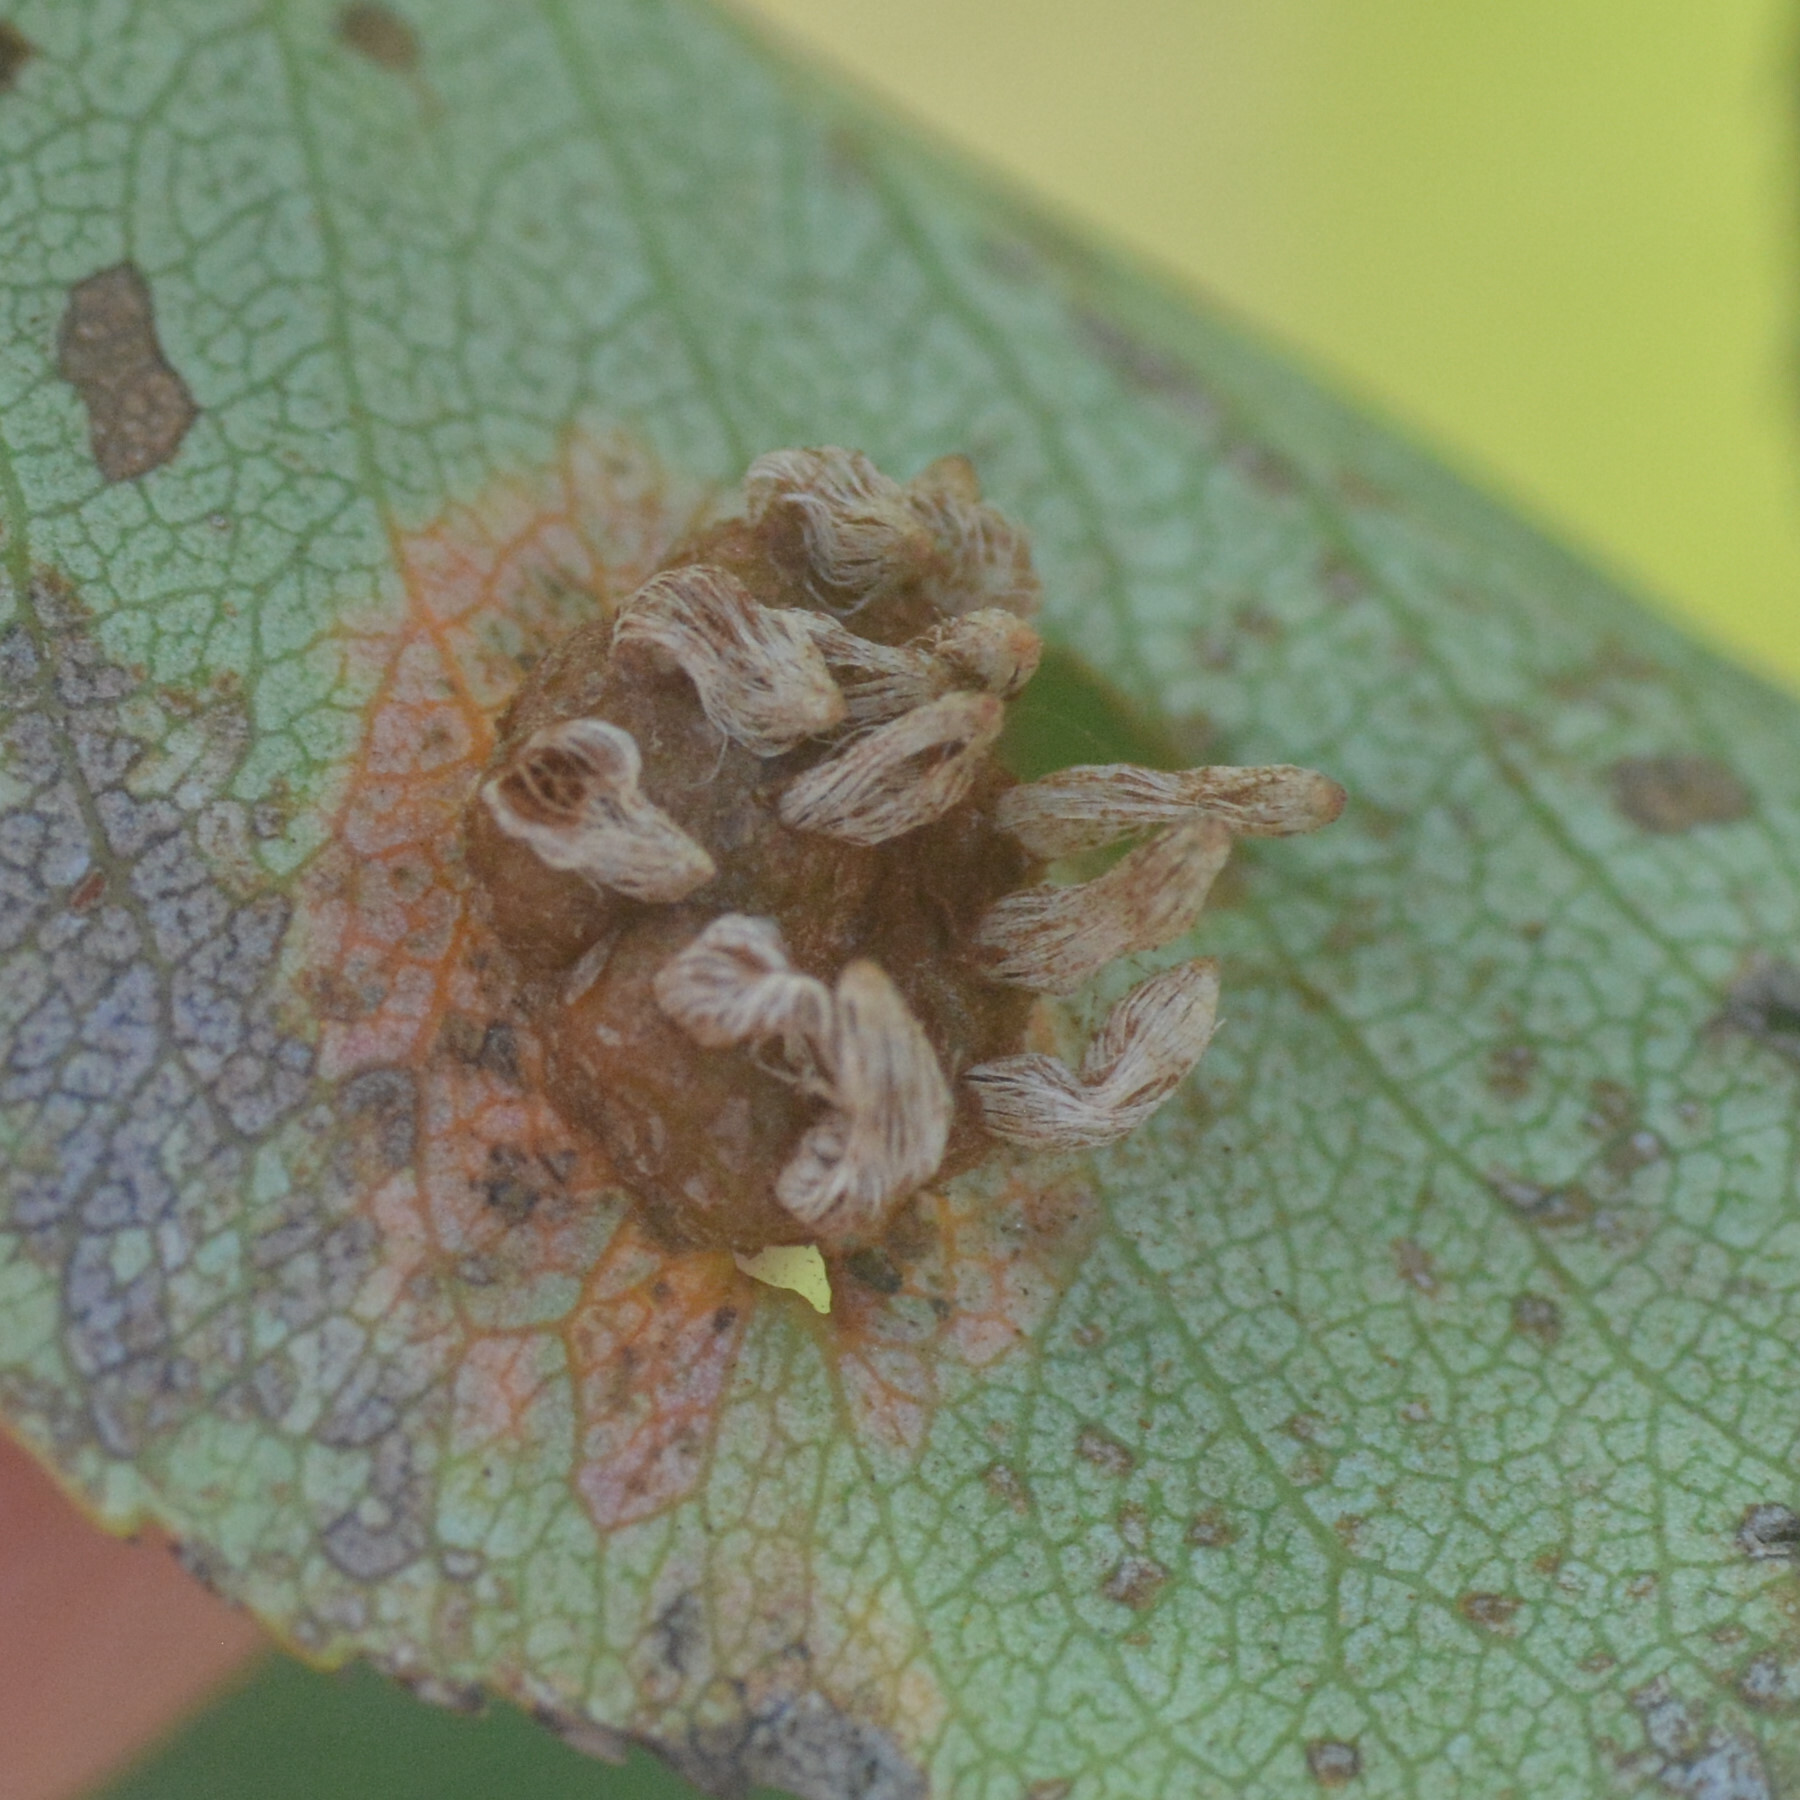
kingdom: Fungi
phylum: Basidiomycota
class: Pucciniomycetes
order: Pucciniales
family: Gymnosporangiaceae
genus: Gymnosporangium
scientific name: Gymnosporangium sabinae
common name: Pear trellis rust fungus
